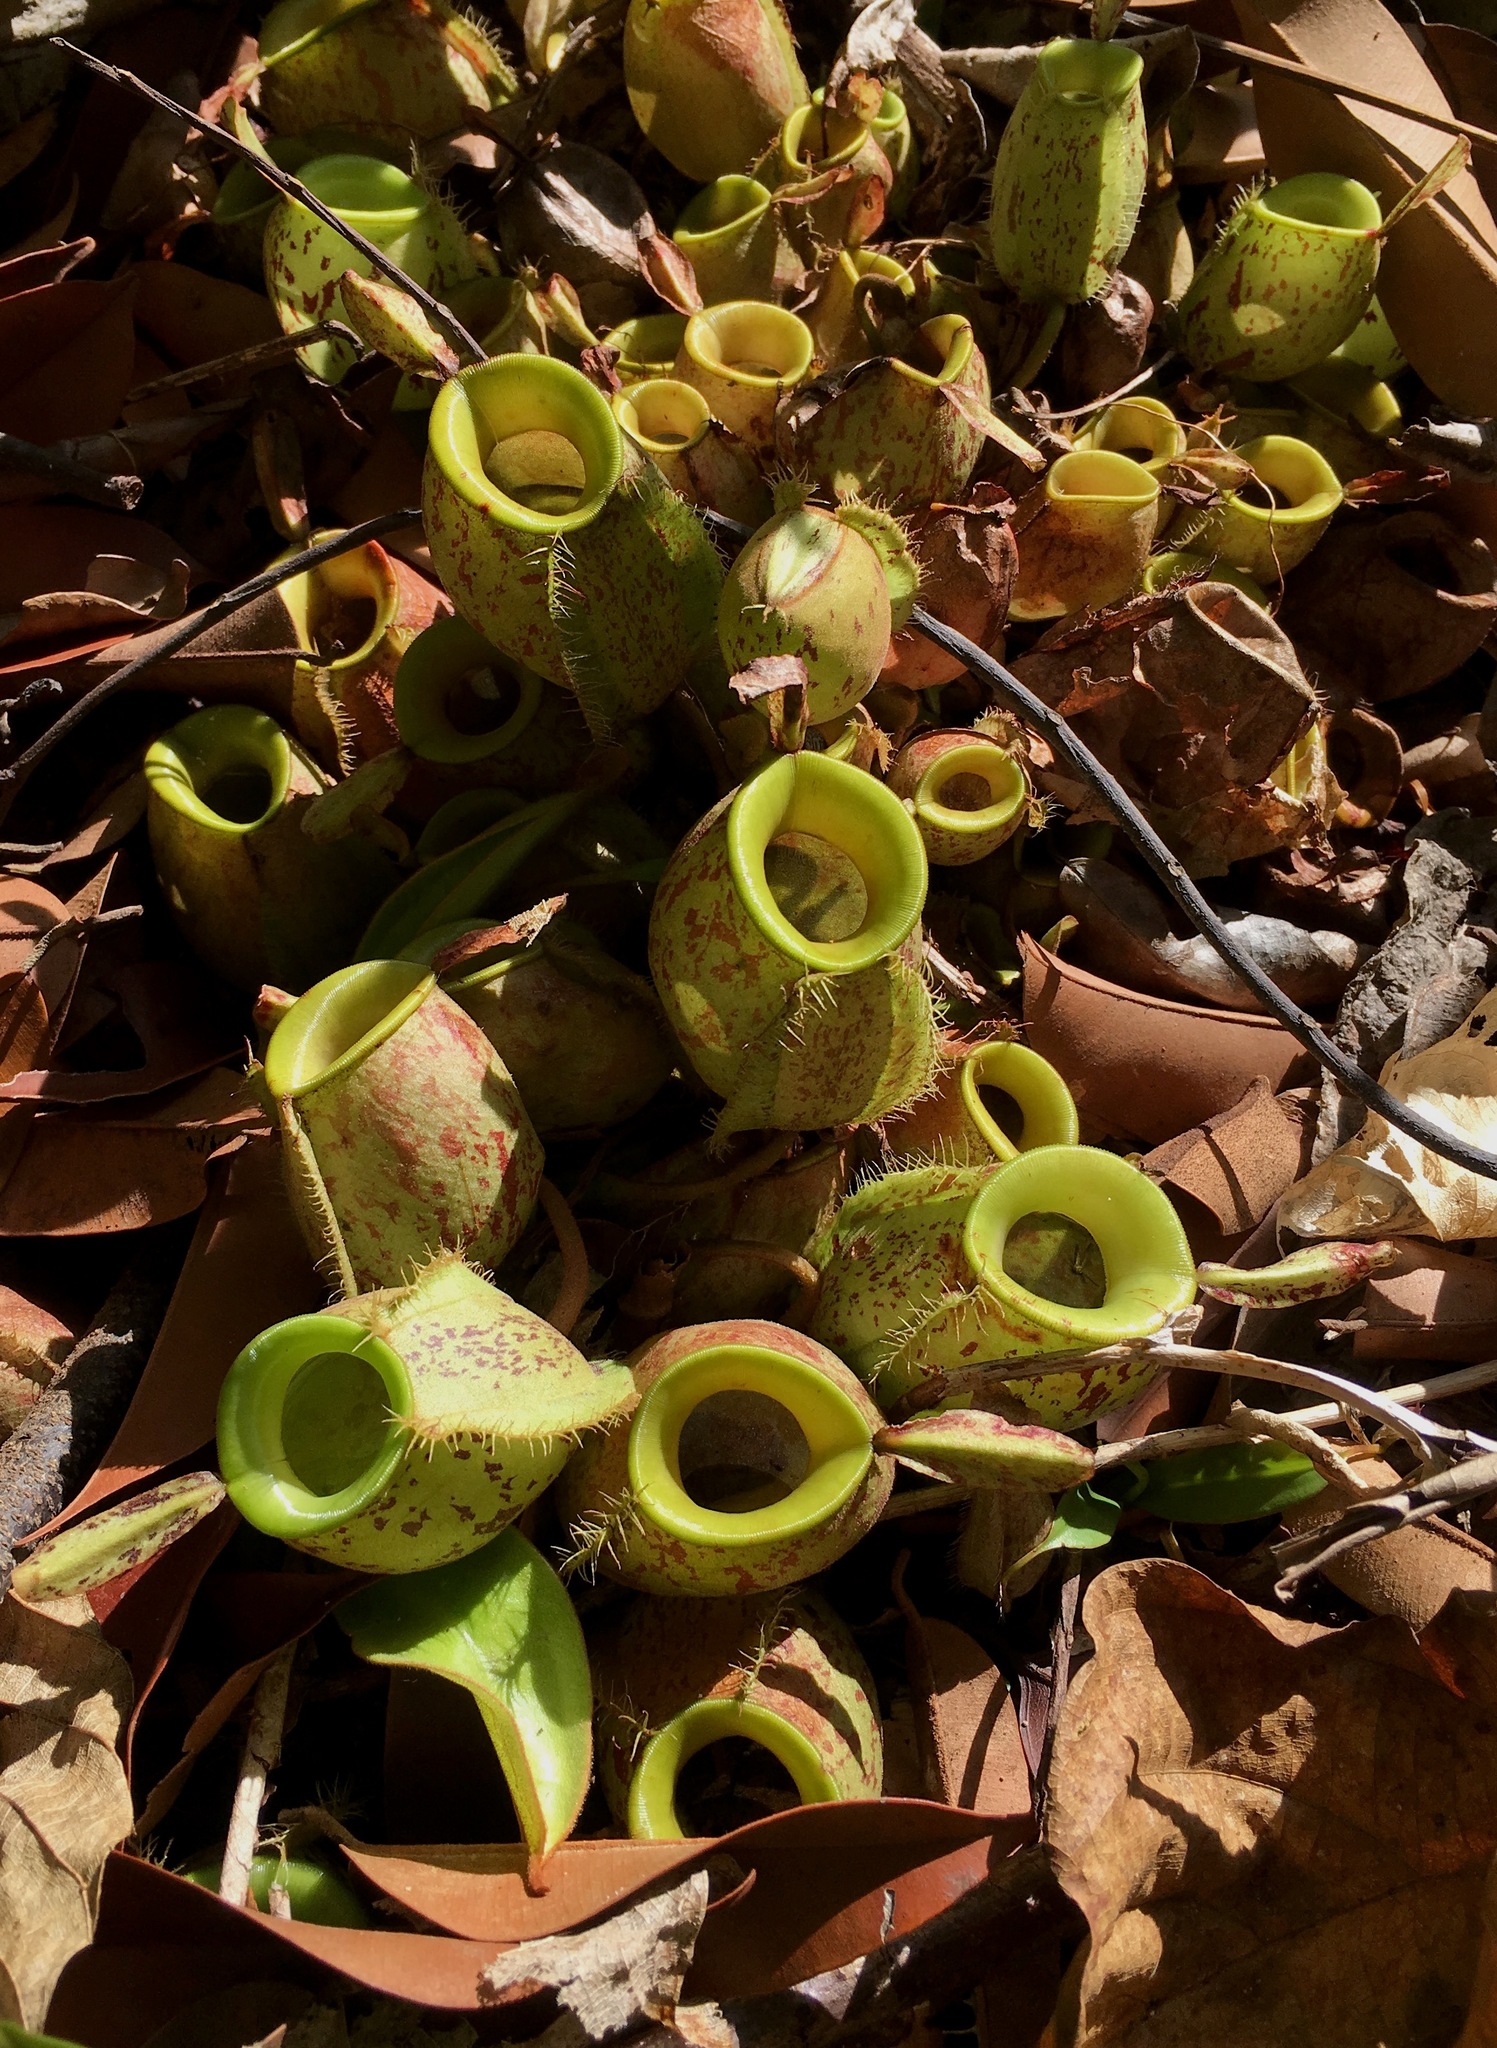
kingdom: Plantae
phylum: Tracheophyta
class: Magnoliopsida
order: Caryophyllales
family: Nepenthaceae
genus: Nepenthes
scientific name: Nepenthes ampullaria
